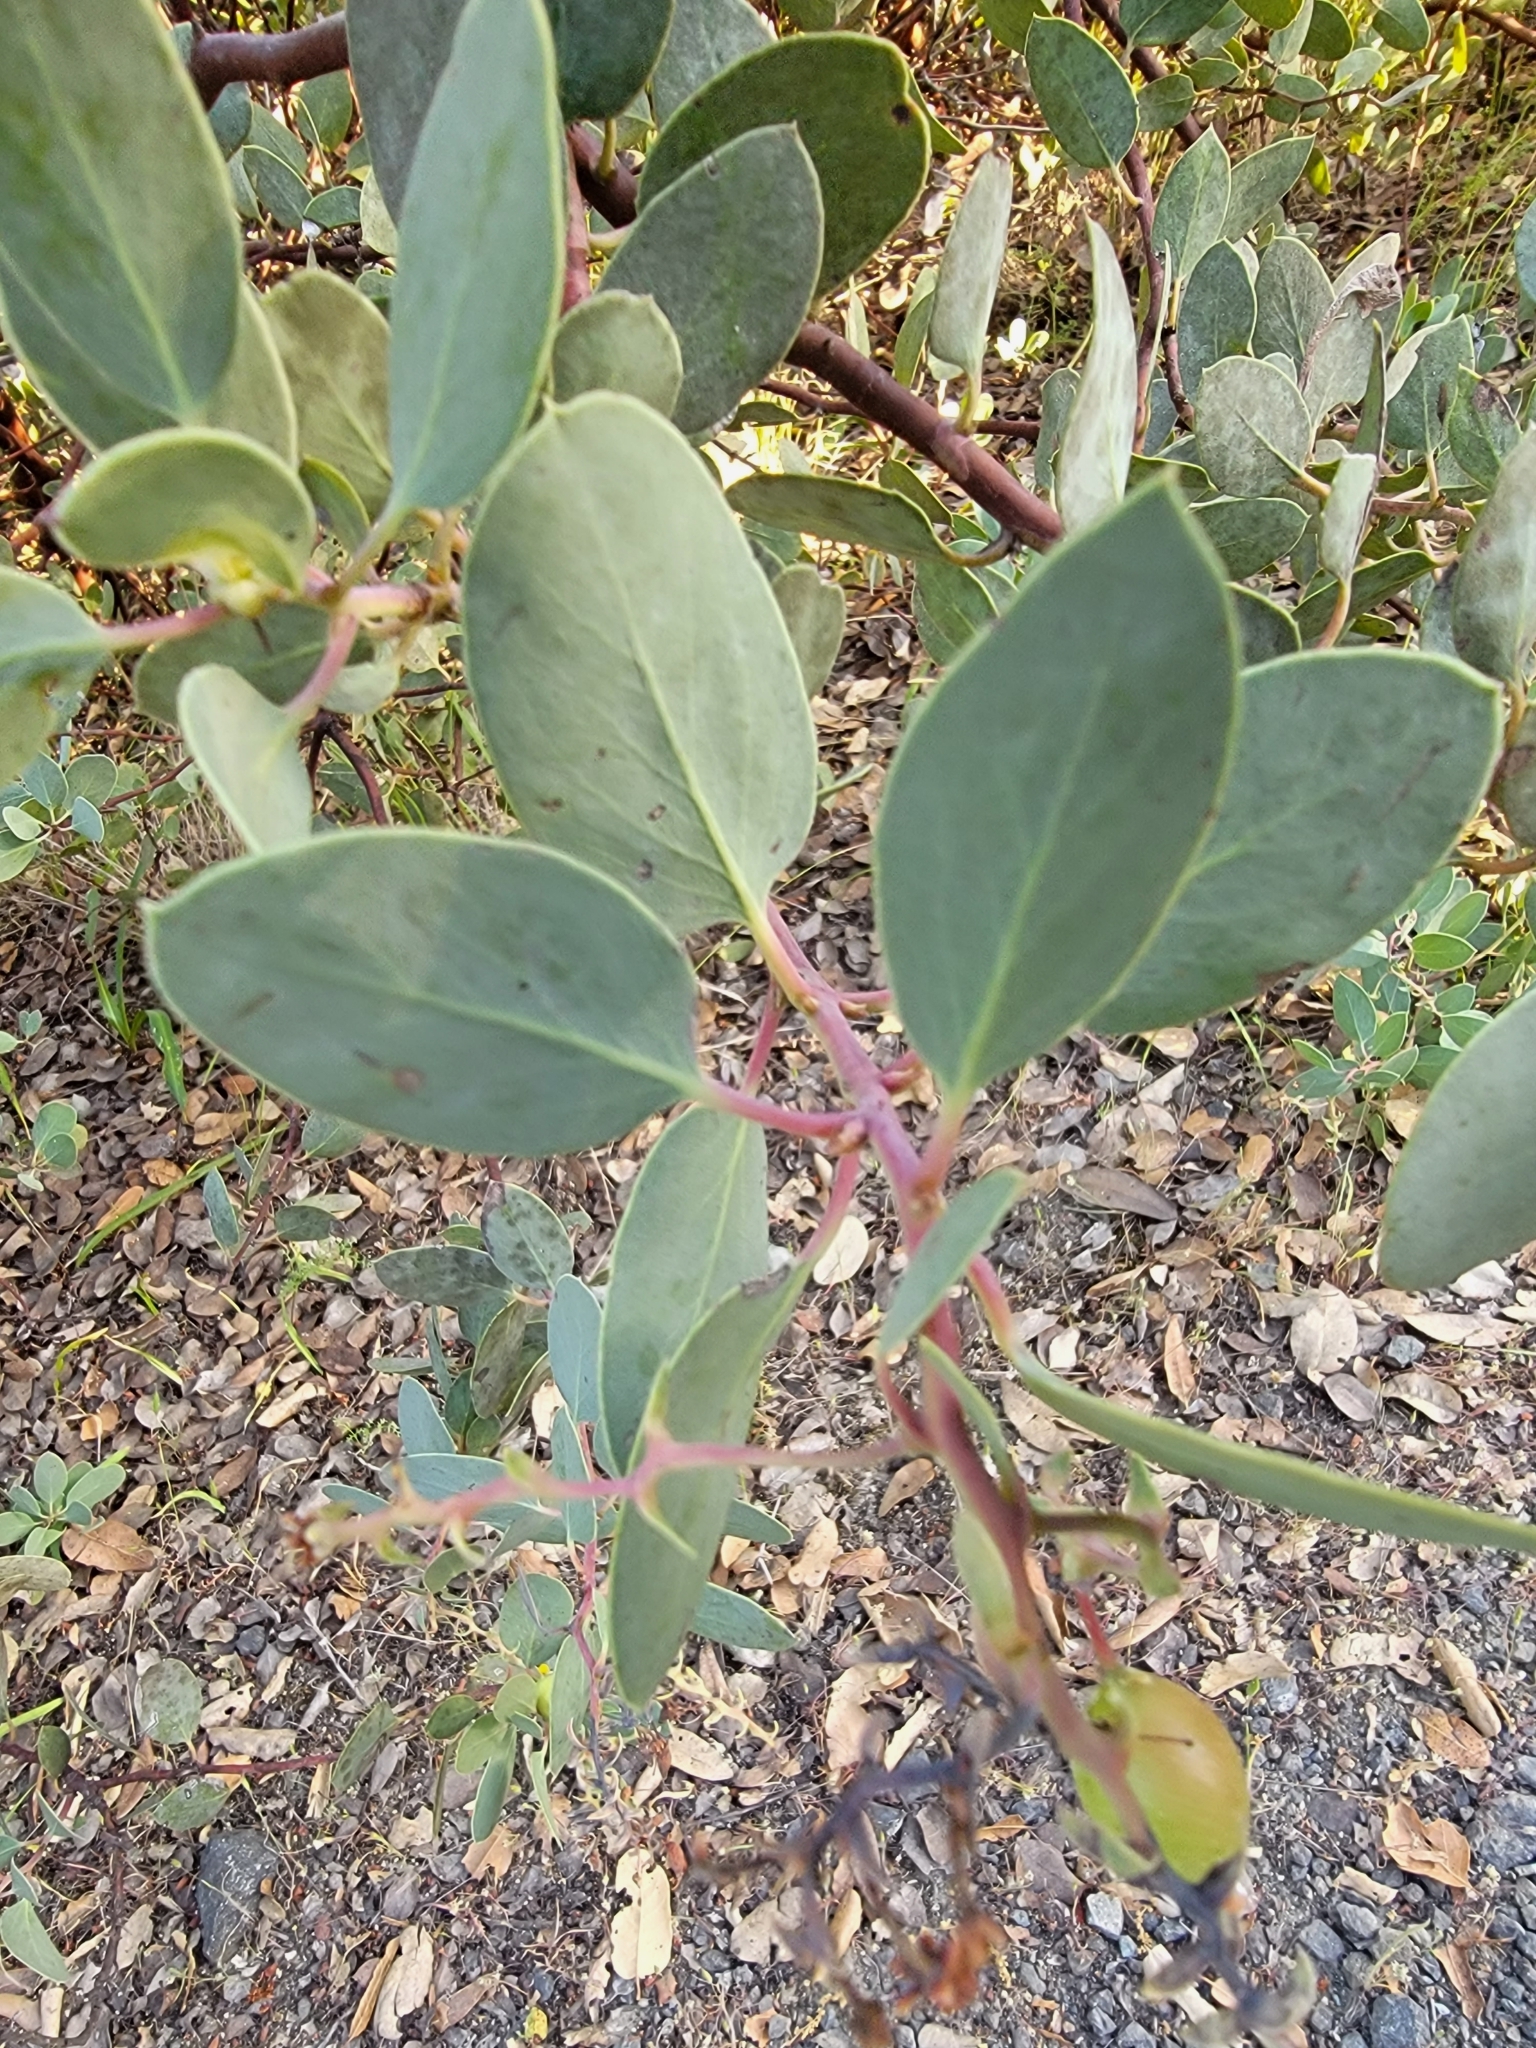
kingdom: Plantae
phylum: Tracheophyta
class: Magnoliopsida
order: Ericales
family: Ericaceae
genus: Arctostaphylos
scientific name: Arctostaphylos glauca
